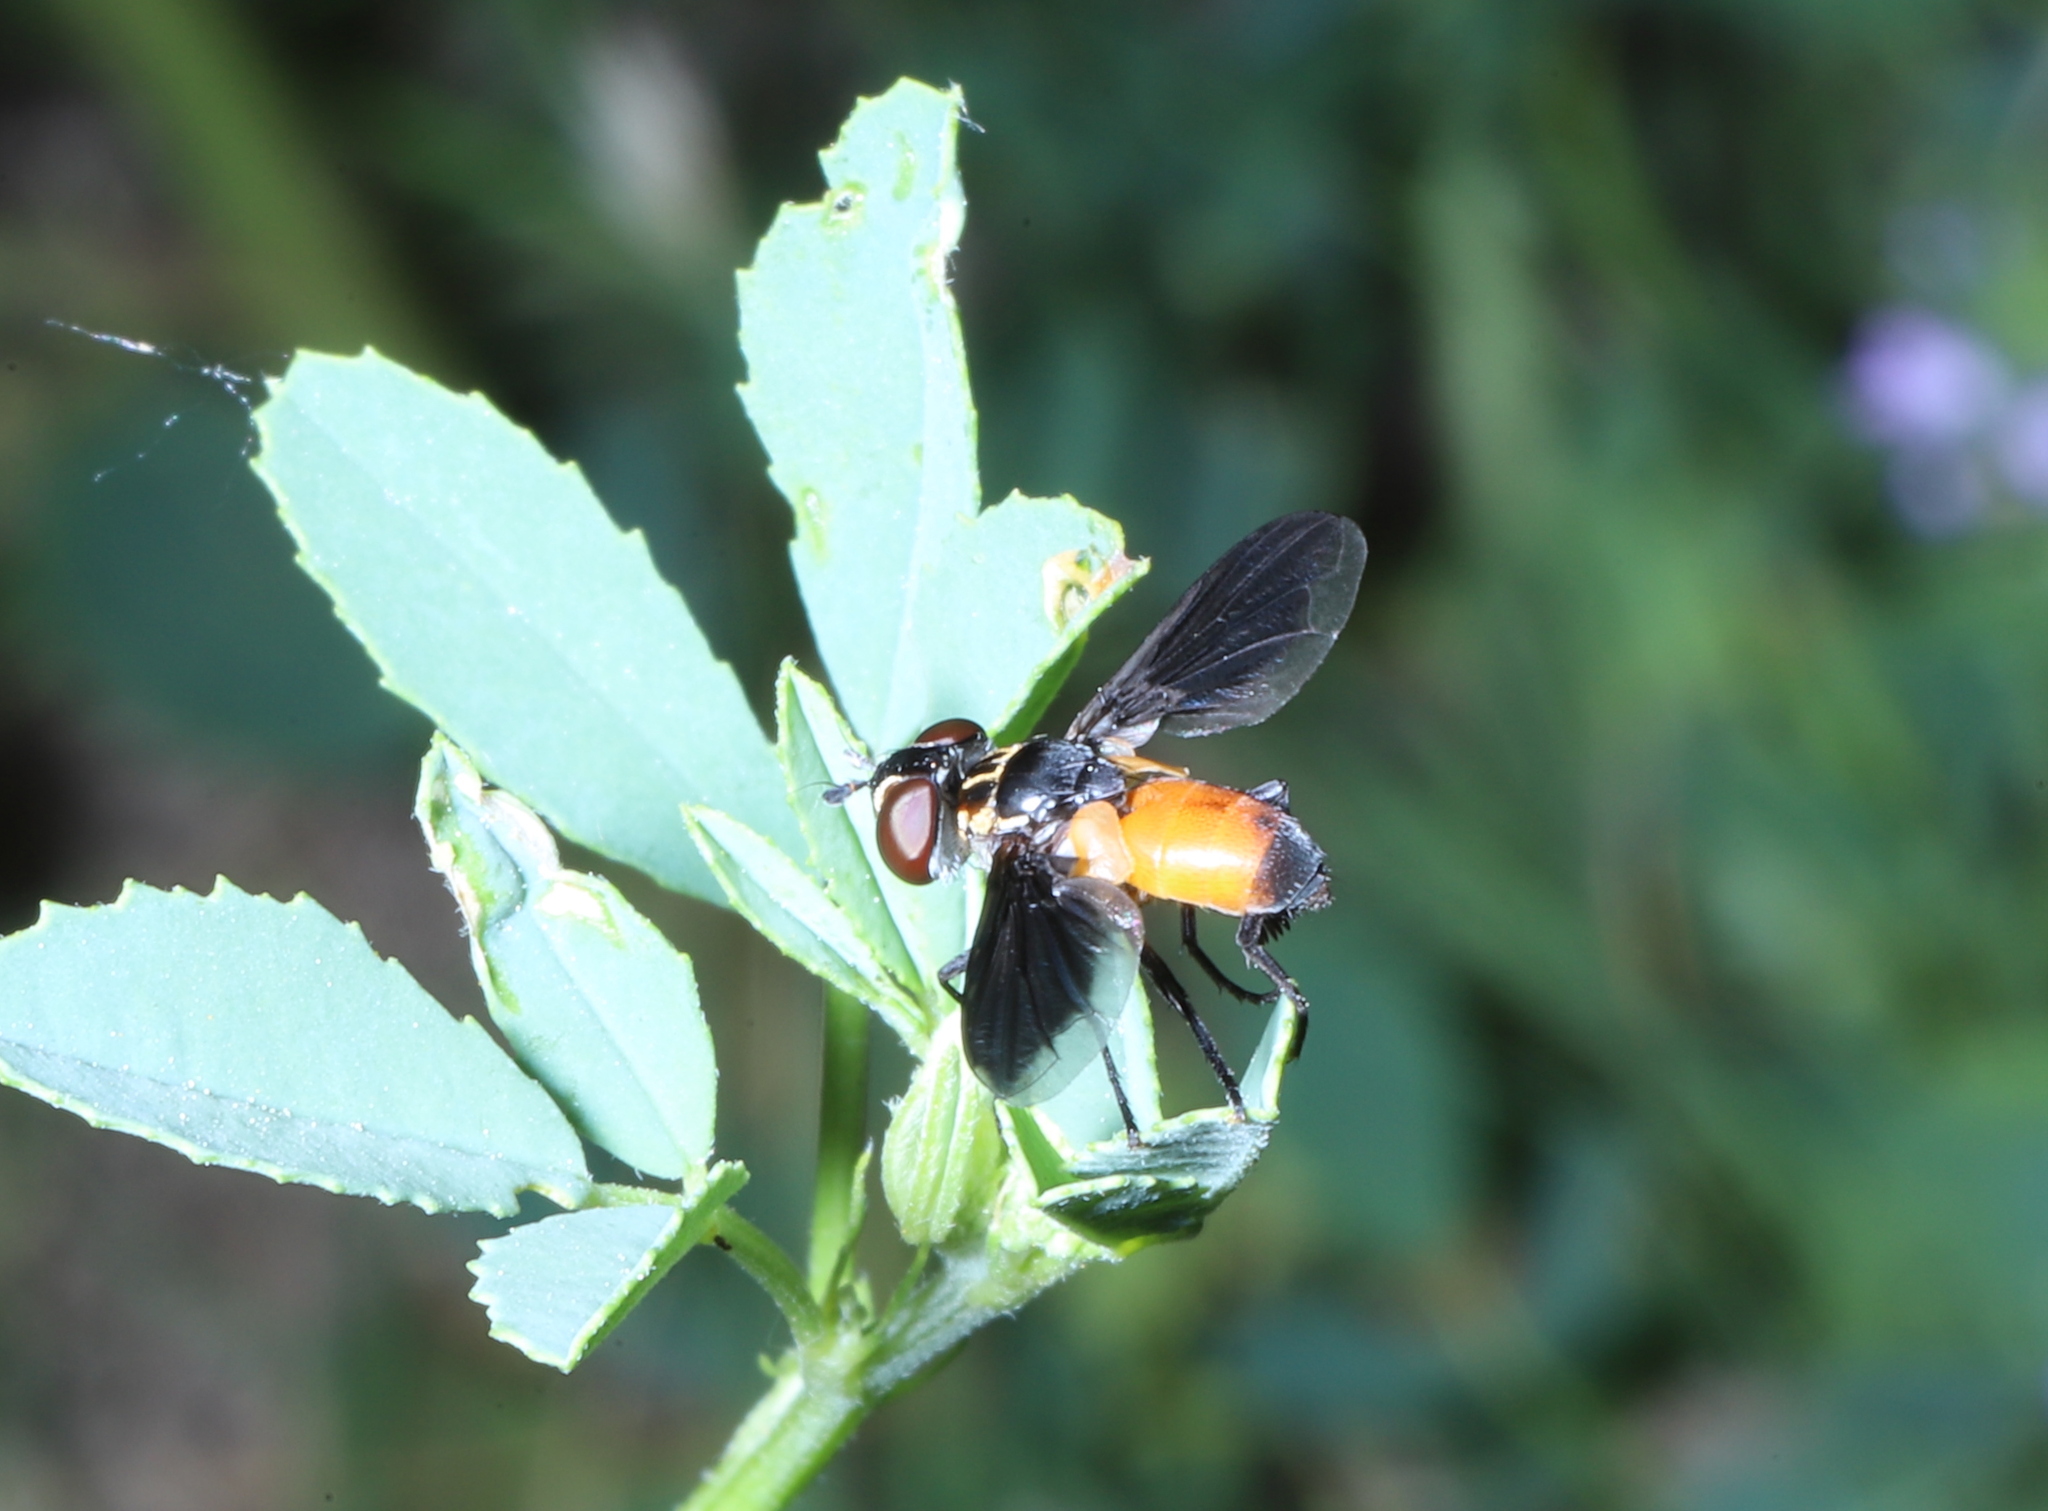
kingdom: Animalia
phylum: Arthropoda
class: Insecta
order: Diptera
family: Tachinidae
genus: Trichopoda
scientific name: Trichopoda pennipes
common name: Tachinid fly
